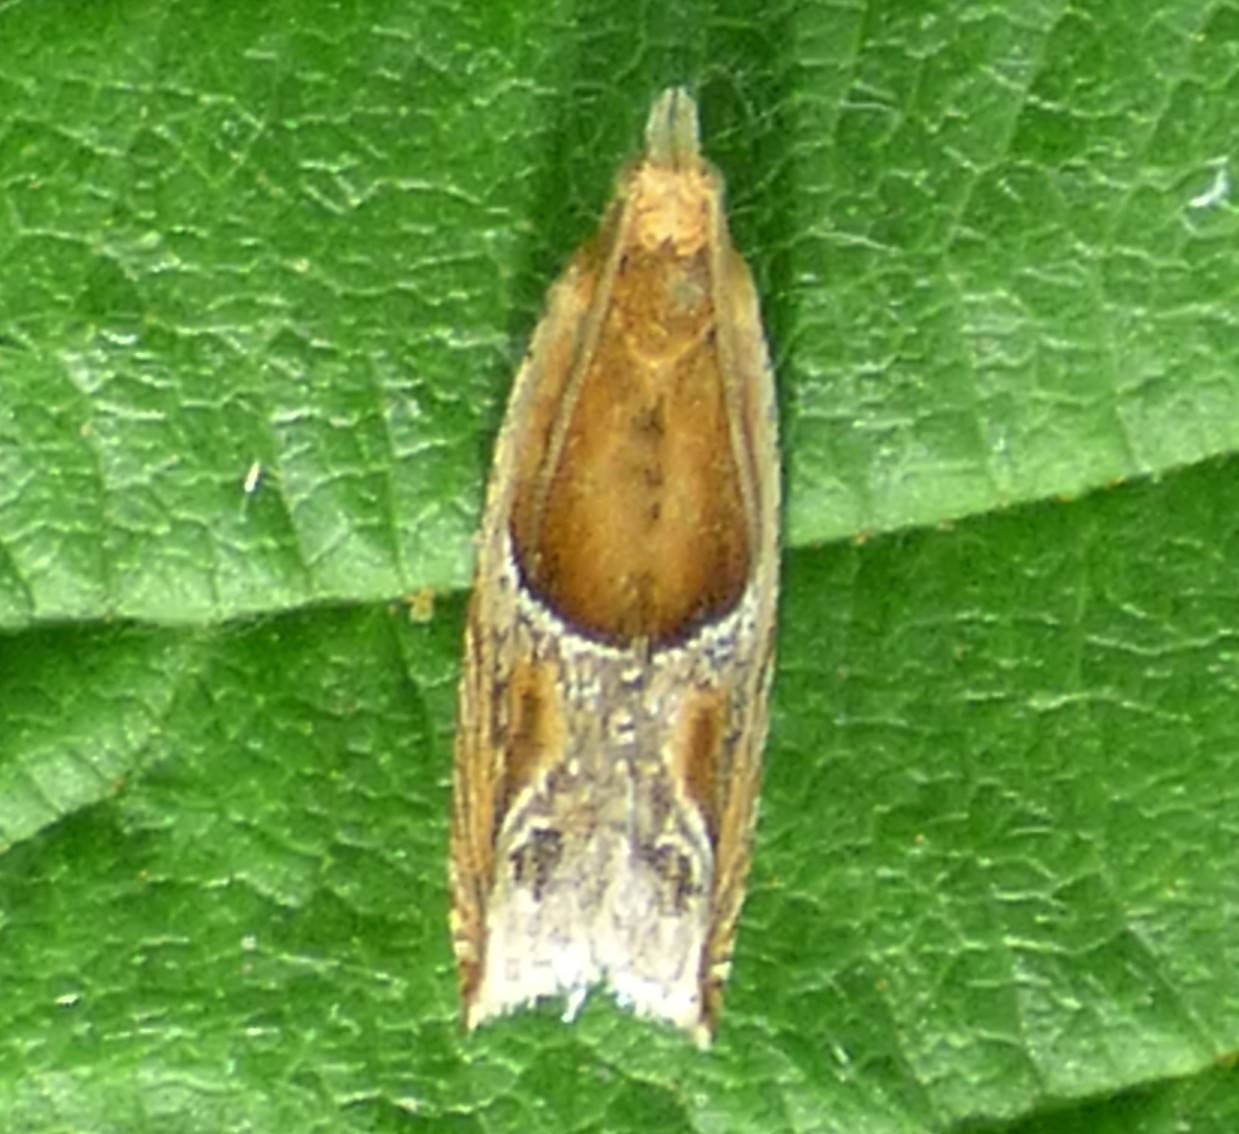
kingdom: Animalia
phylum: Arthropoda
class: Insecta
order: Lepidoptera
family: Tortricidae
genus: Ancylis
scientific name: Ancylis comptana
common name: Little roller
